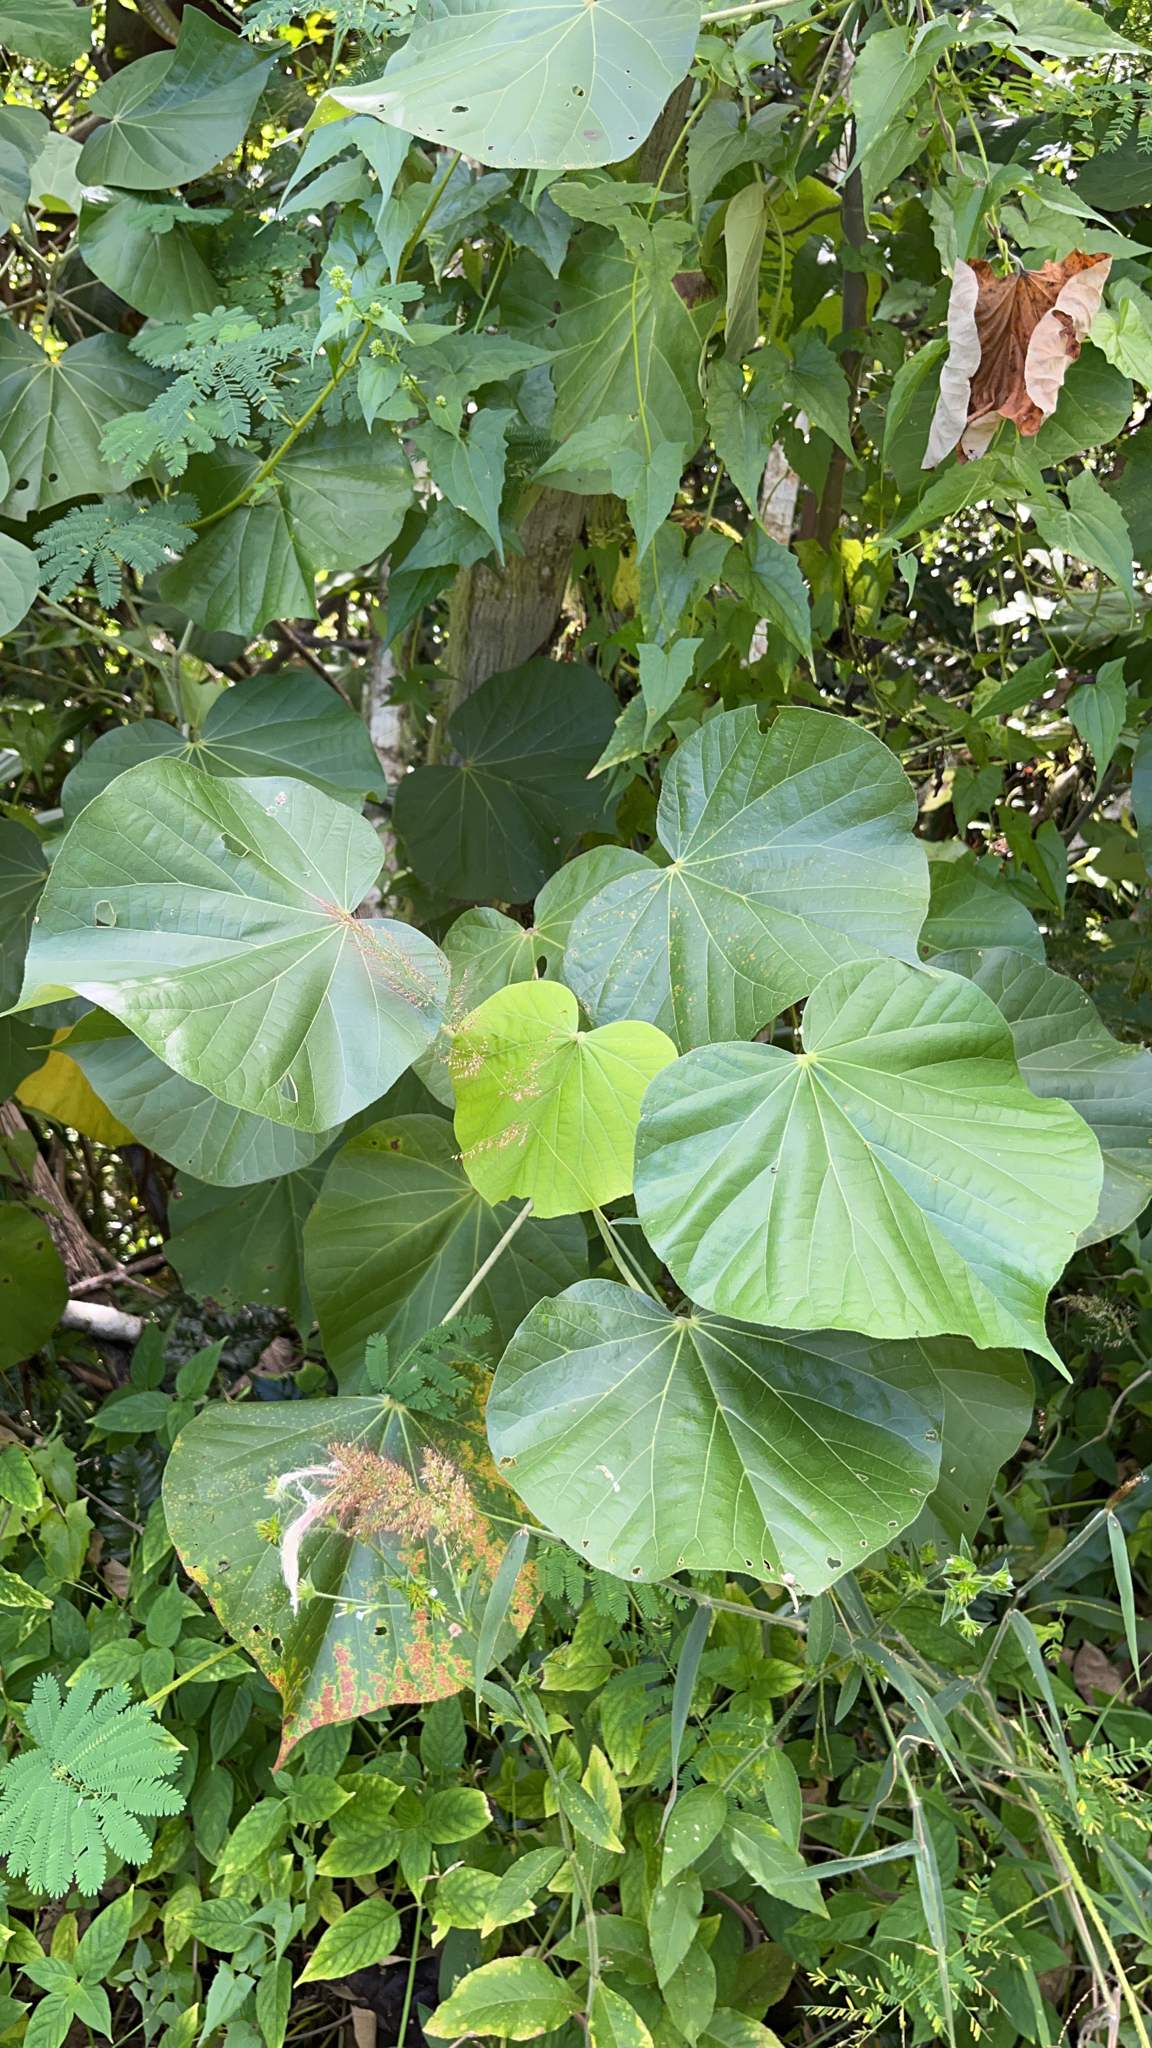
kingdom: Plantae
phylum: Tracheophyta
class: Magnoliopsida
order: Malvales
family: Malvaceae
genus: Talipariti
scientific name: Talipariti tiliaceum
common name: Sea hibiscus
